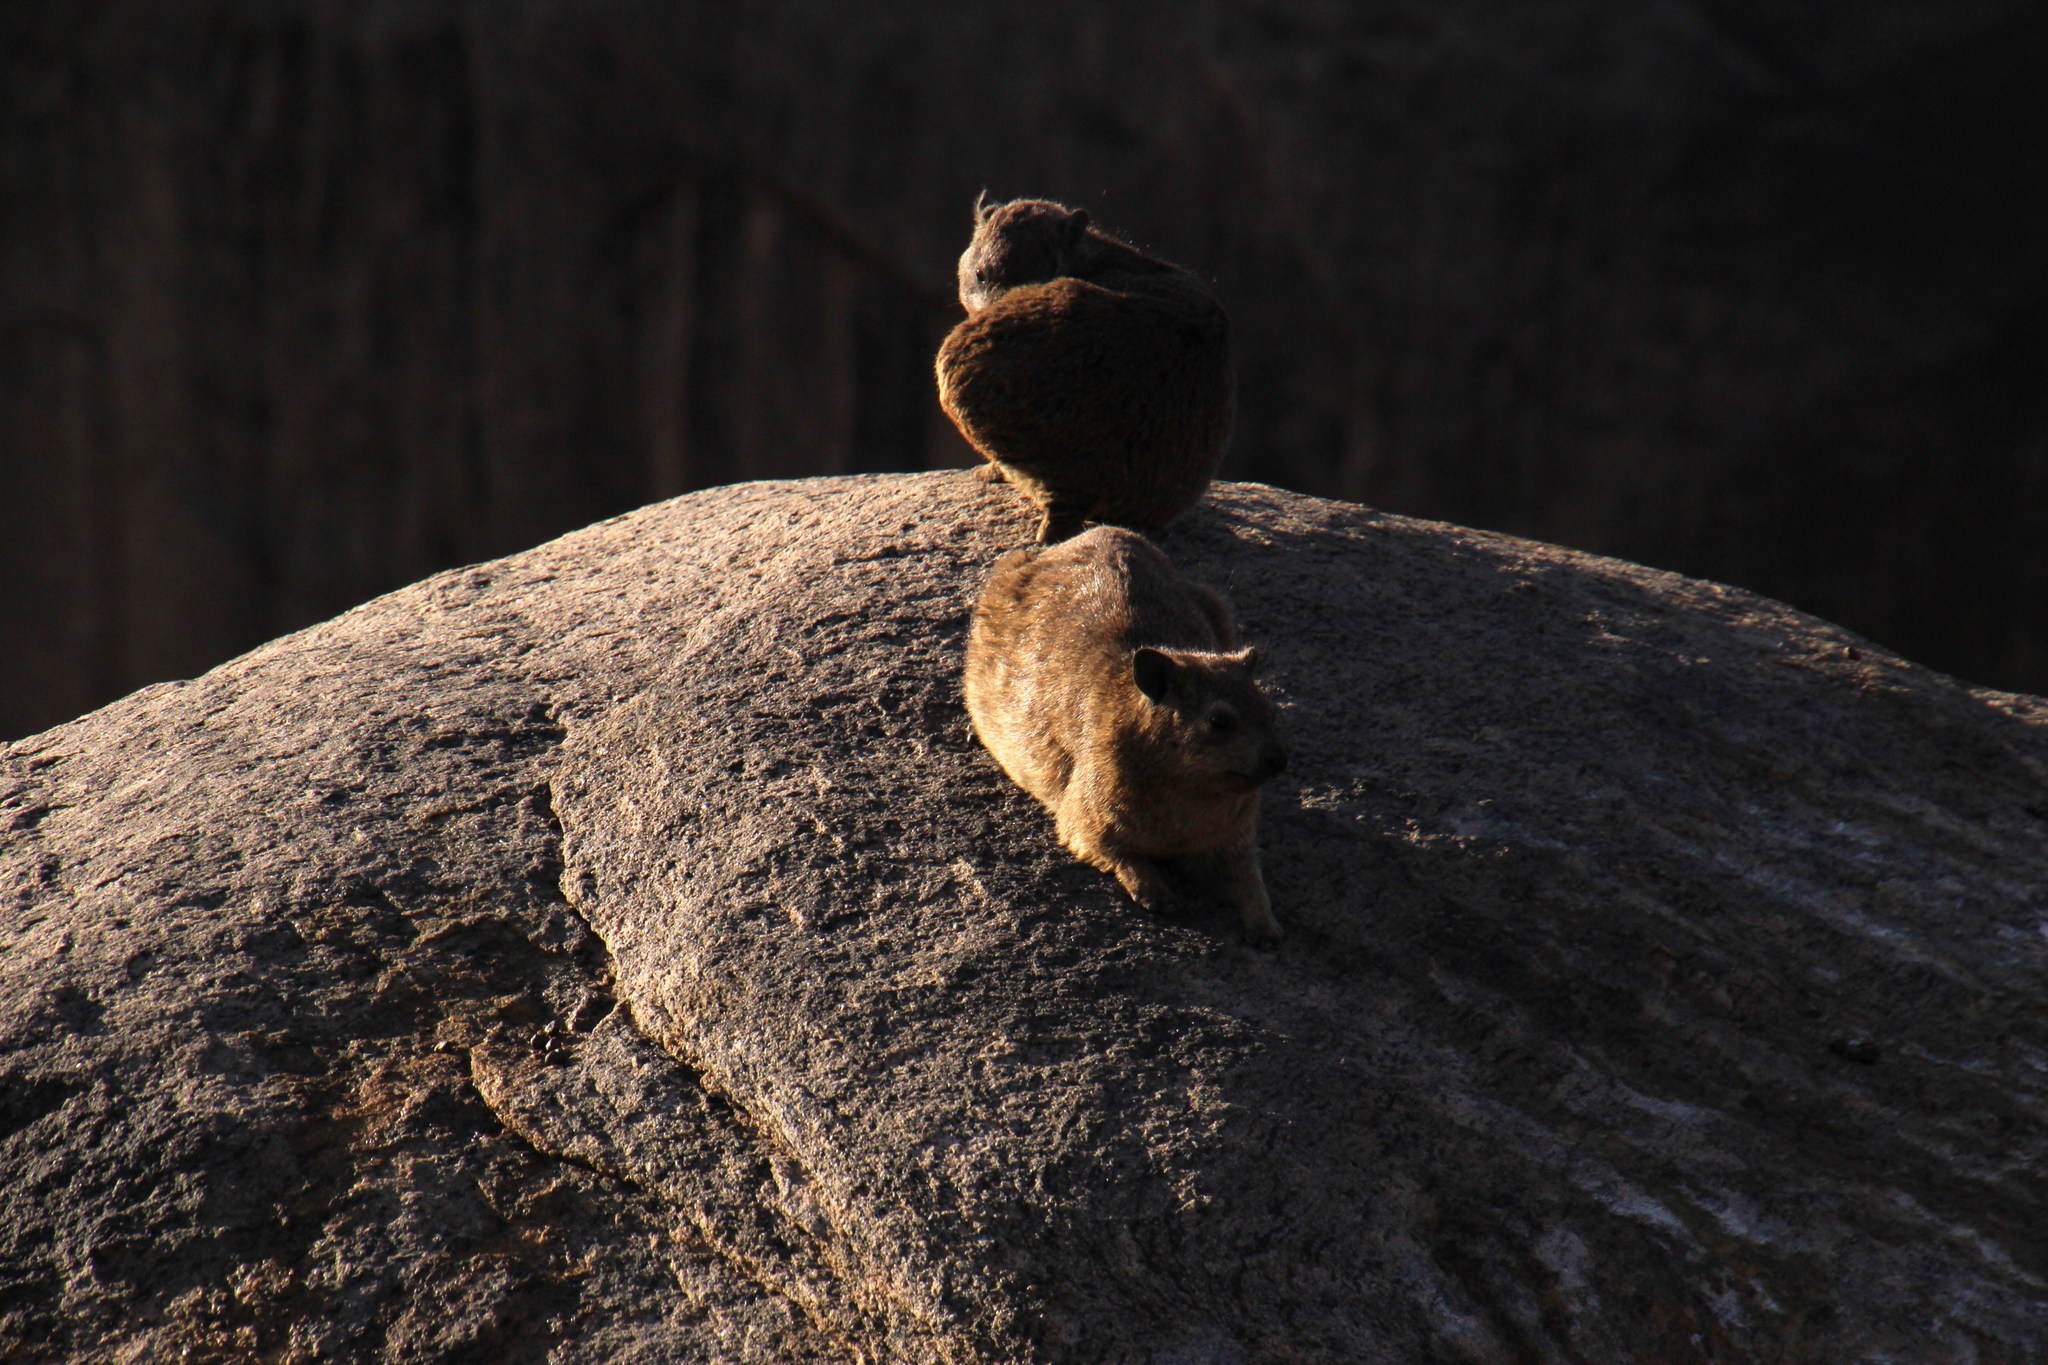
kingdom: Animalia
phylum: Chordata
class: Mammalia
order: Hyracoidea
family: Procaviidae
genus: Procavia
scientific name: Procavia capensis
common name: Rock hyrax
